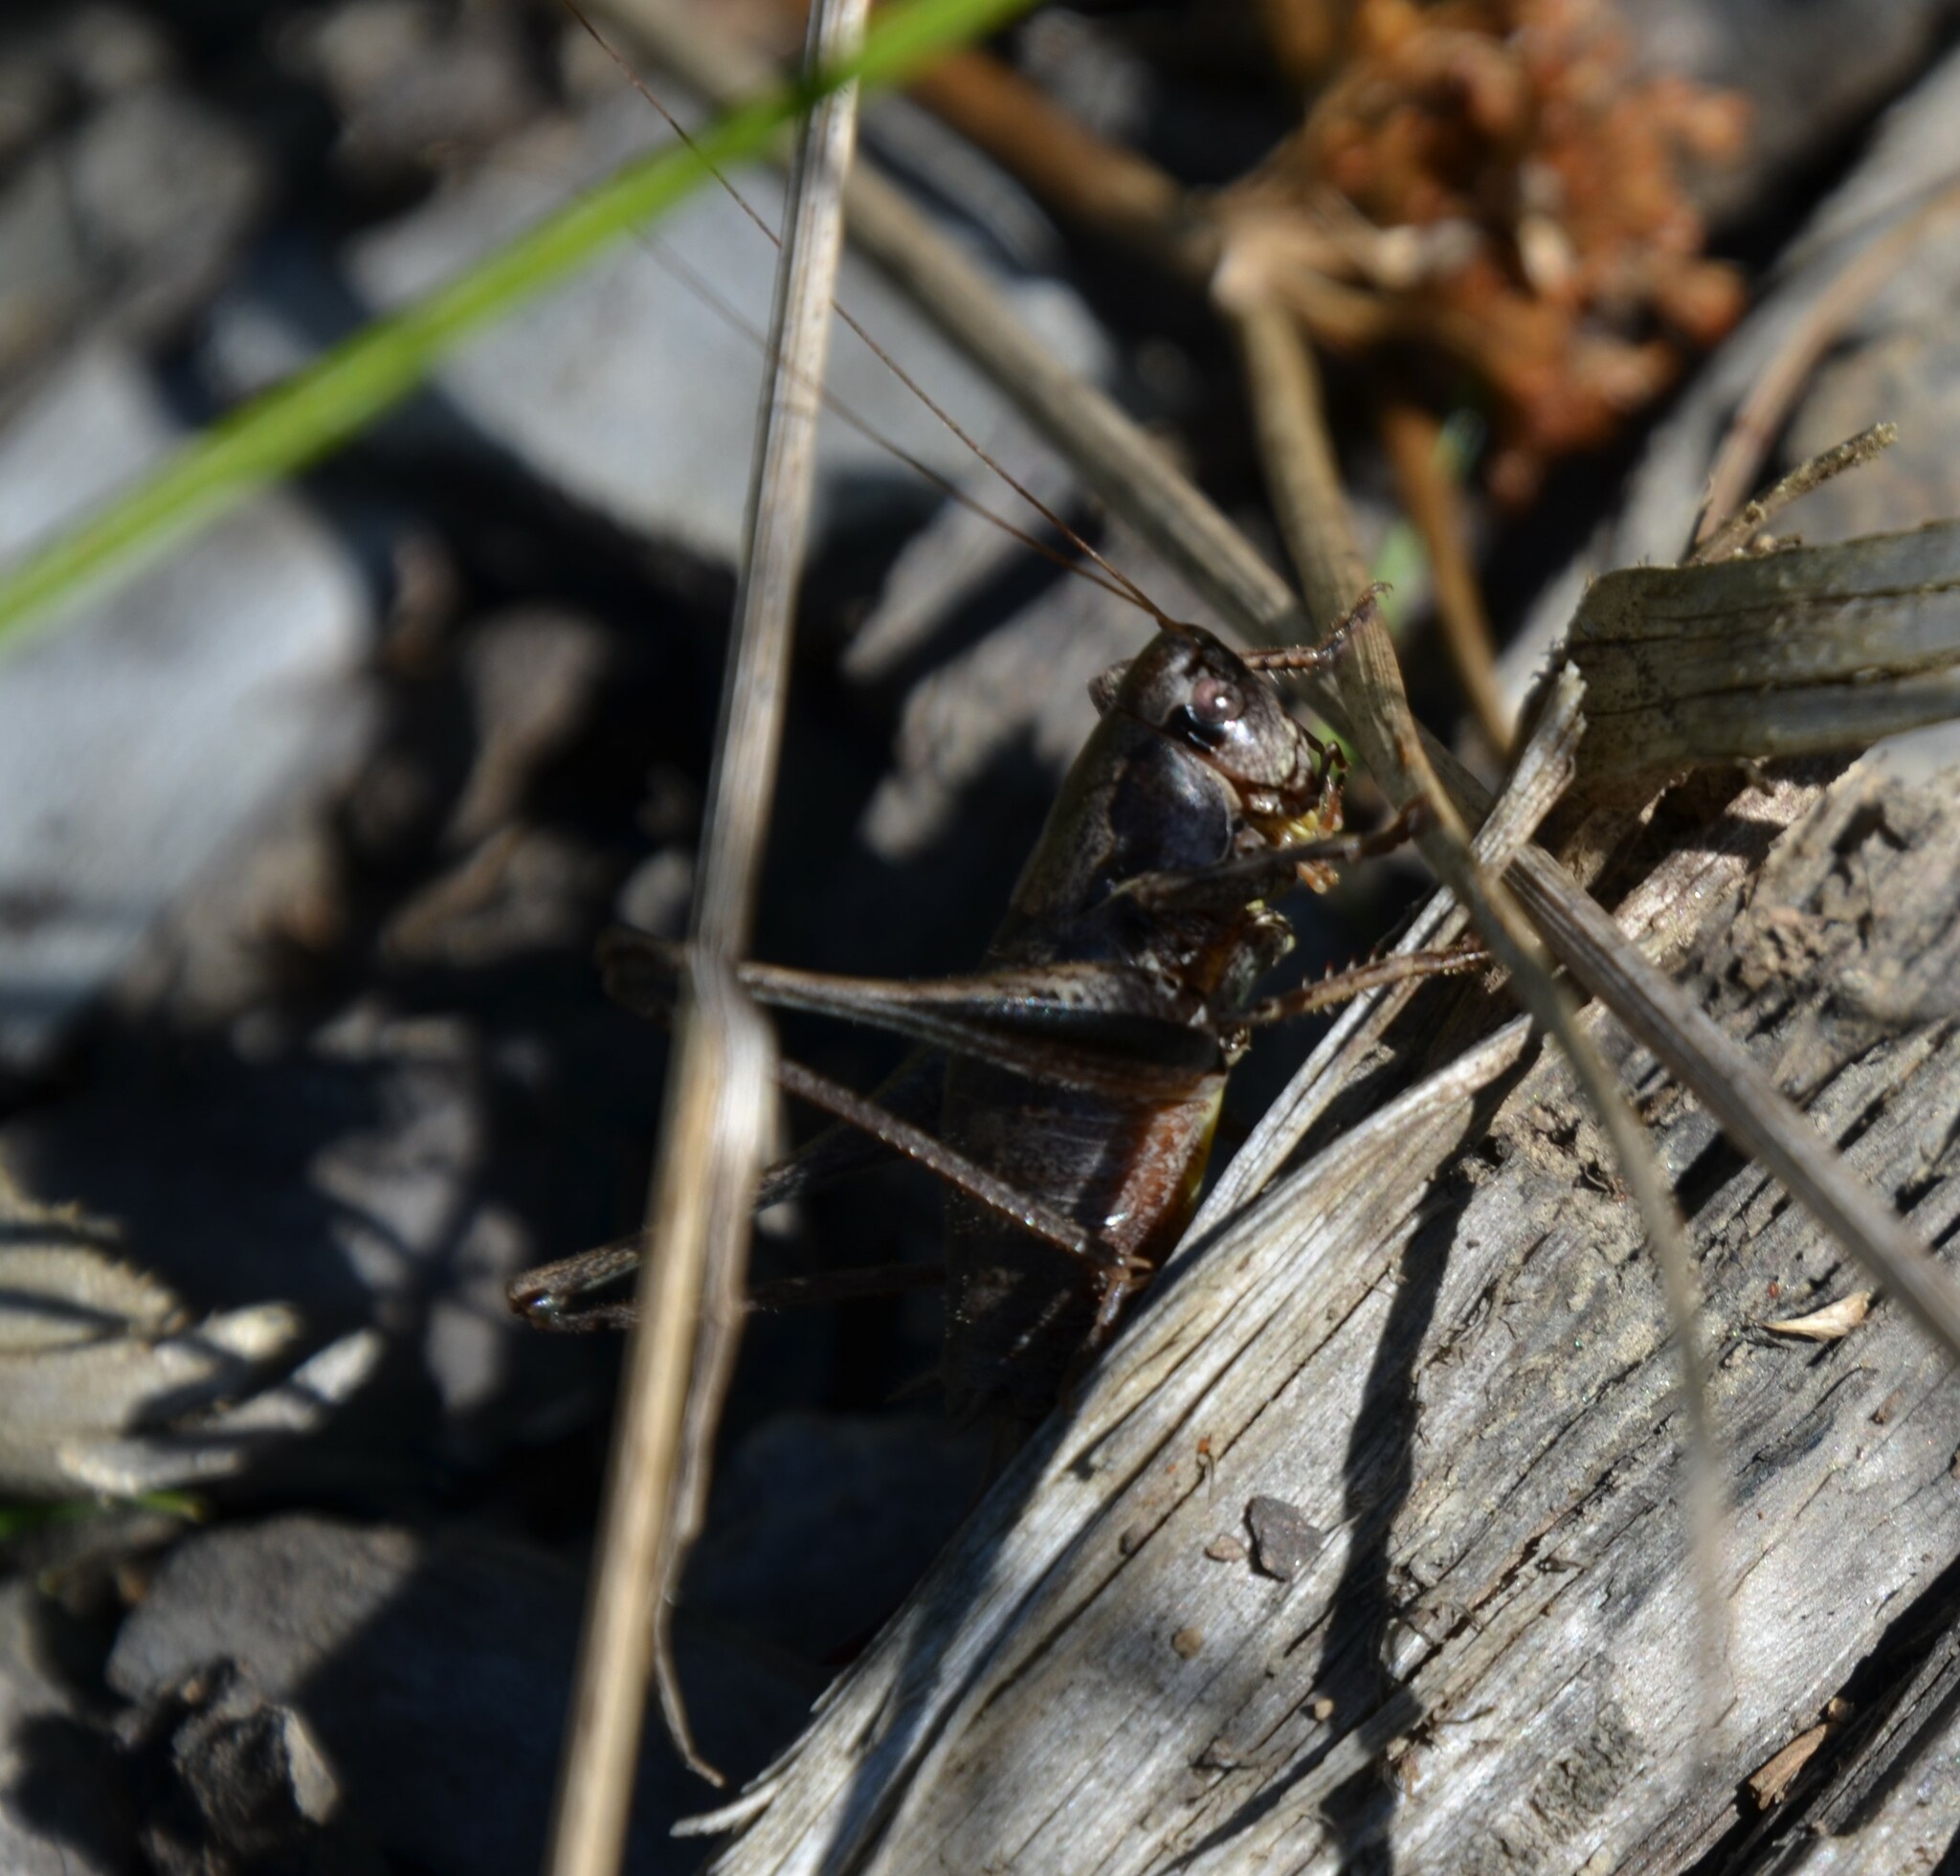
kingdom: Animalia
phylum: Arthropoda
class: Insecta
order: Orthoptera
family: Tettigoniidae
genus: Pholidoptera
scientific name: Pholidoptera griseoaptera
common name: Dark bush-cricket
